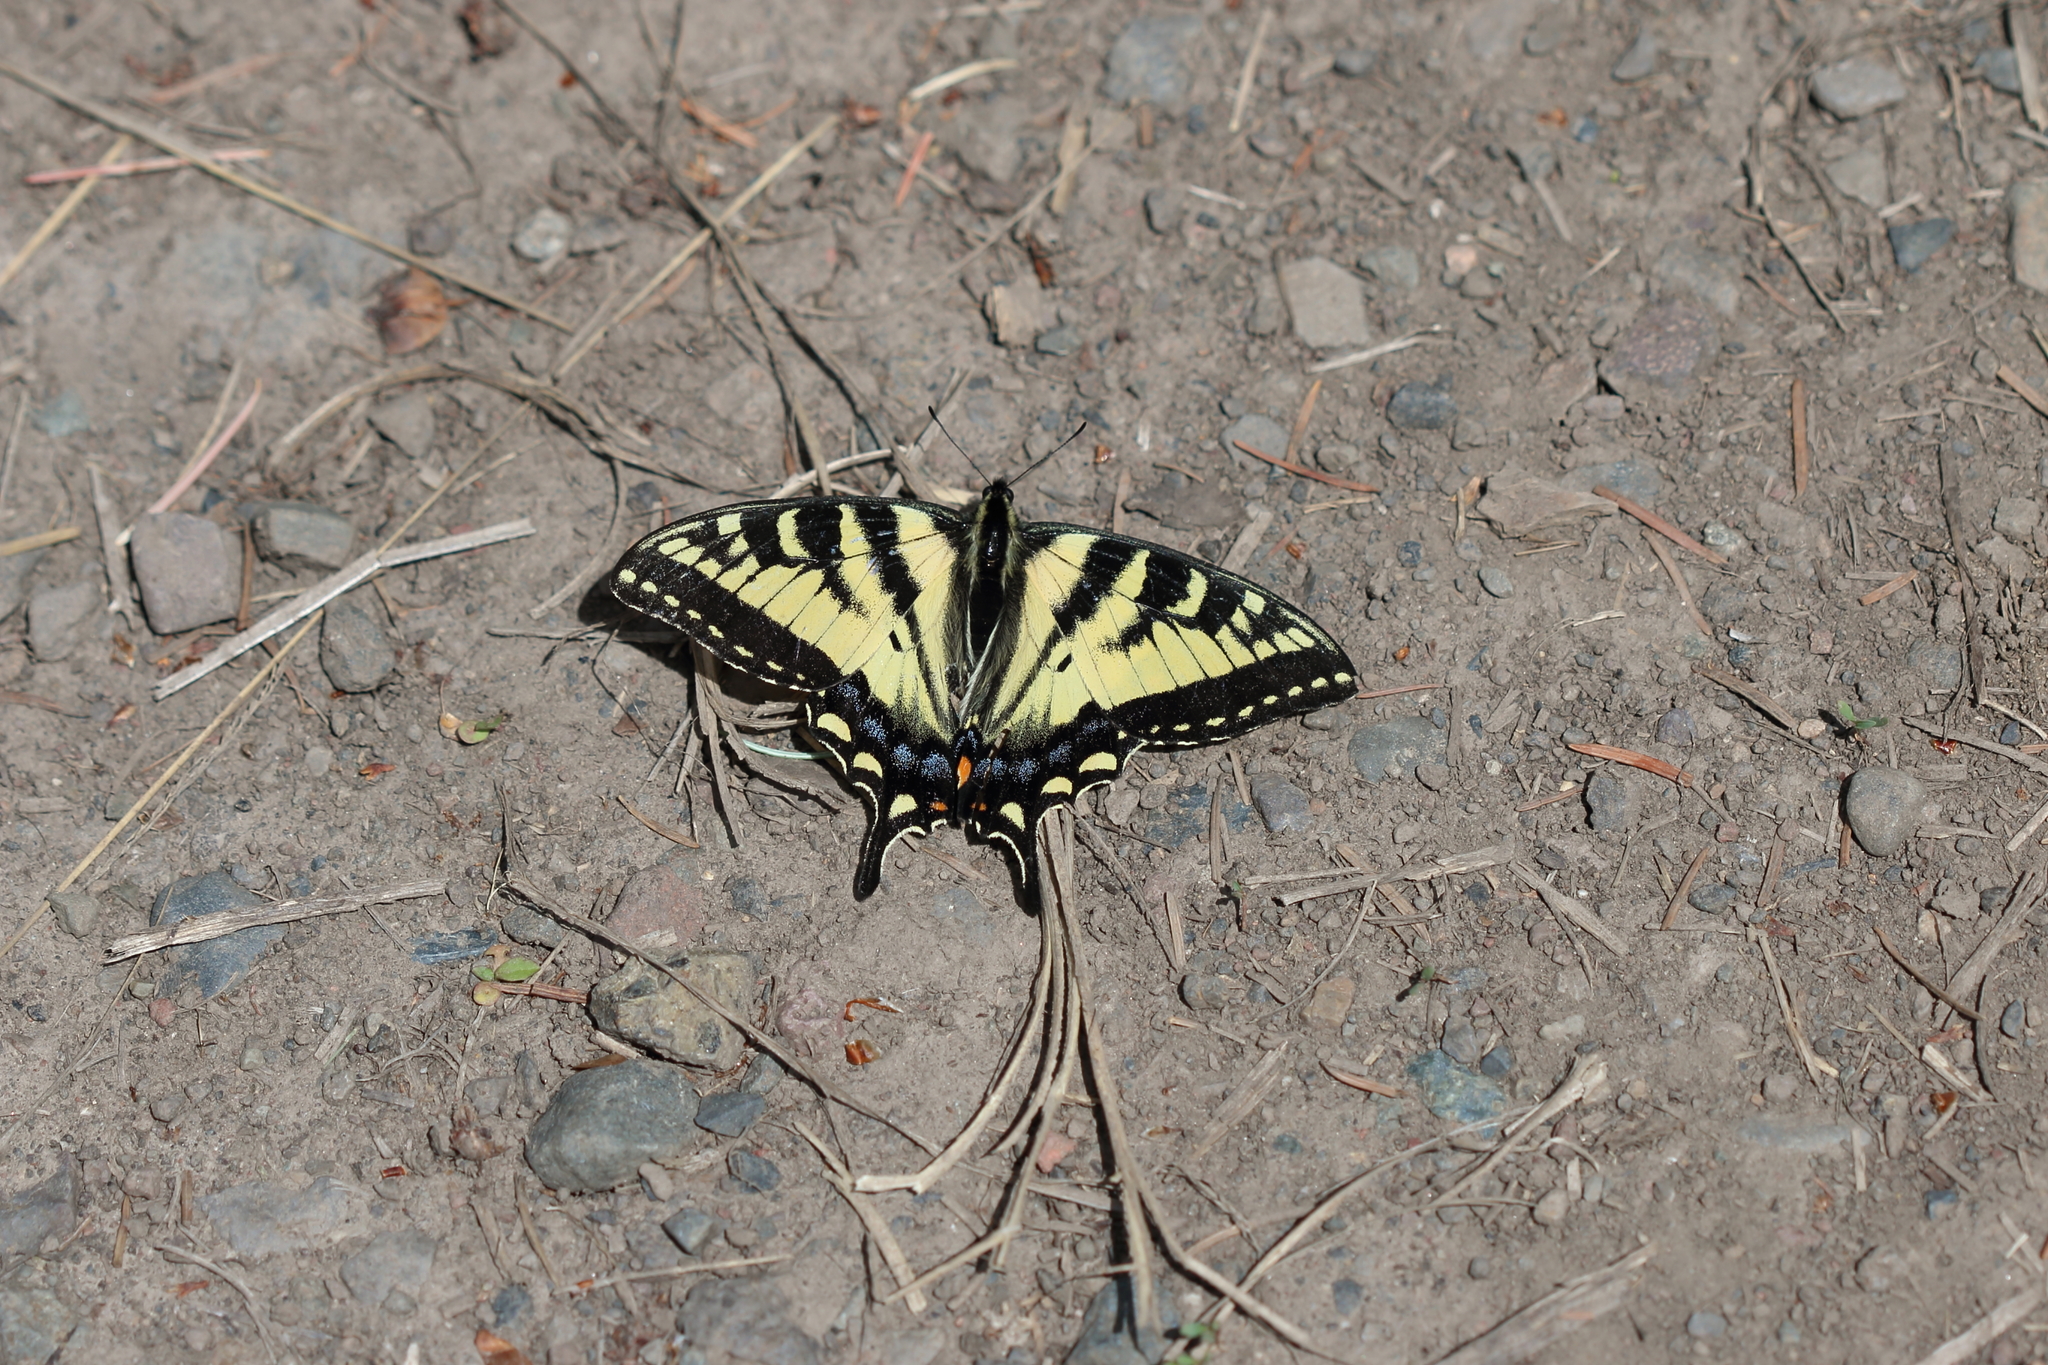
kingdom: Animalia
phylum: Arthropoda
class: Insecta
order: Lepidoptera
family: Papilionidae
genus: Papilio
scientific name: Papilio rutulus
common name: Western tiger swallowtail
